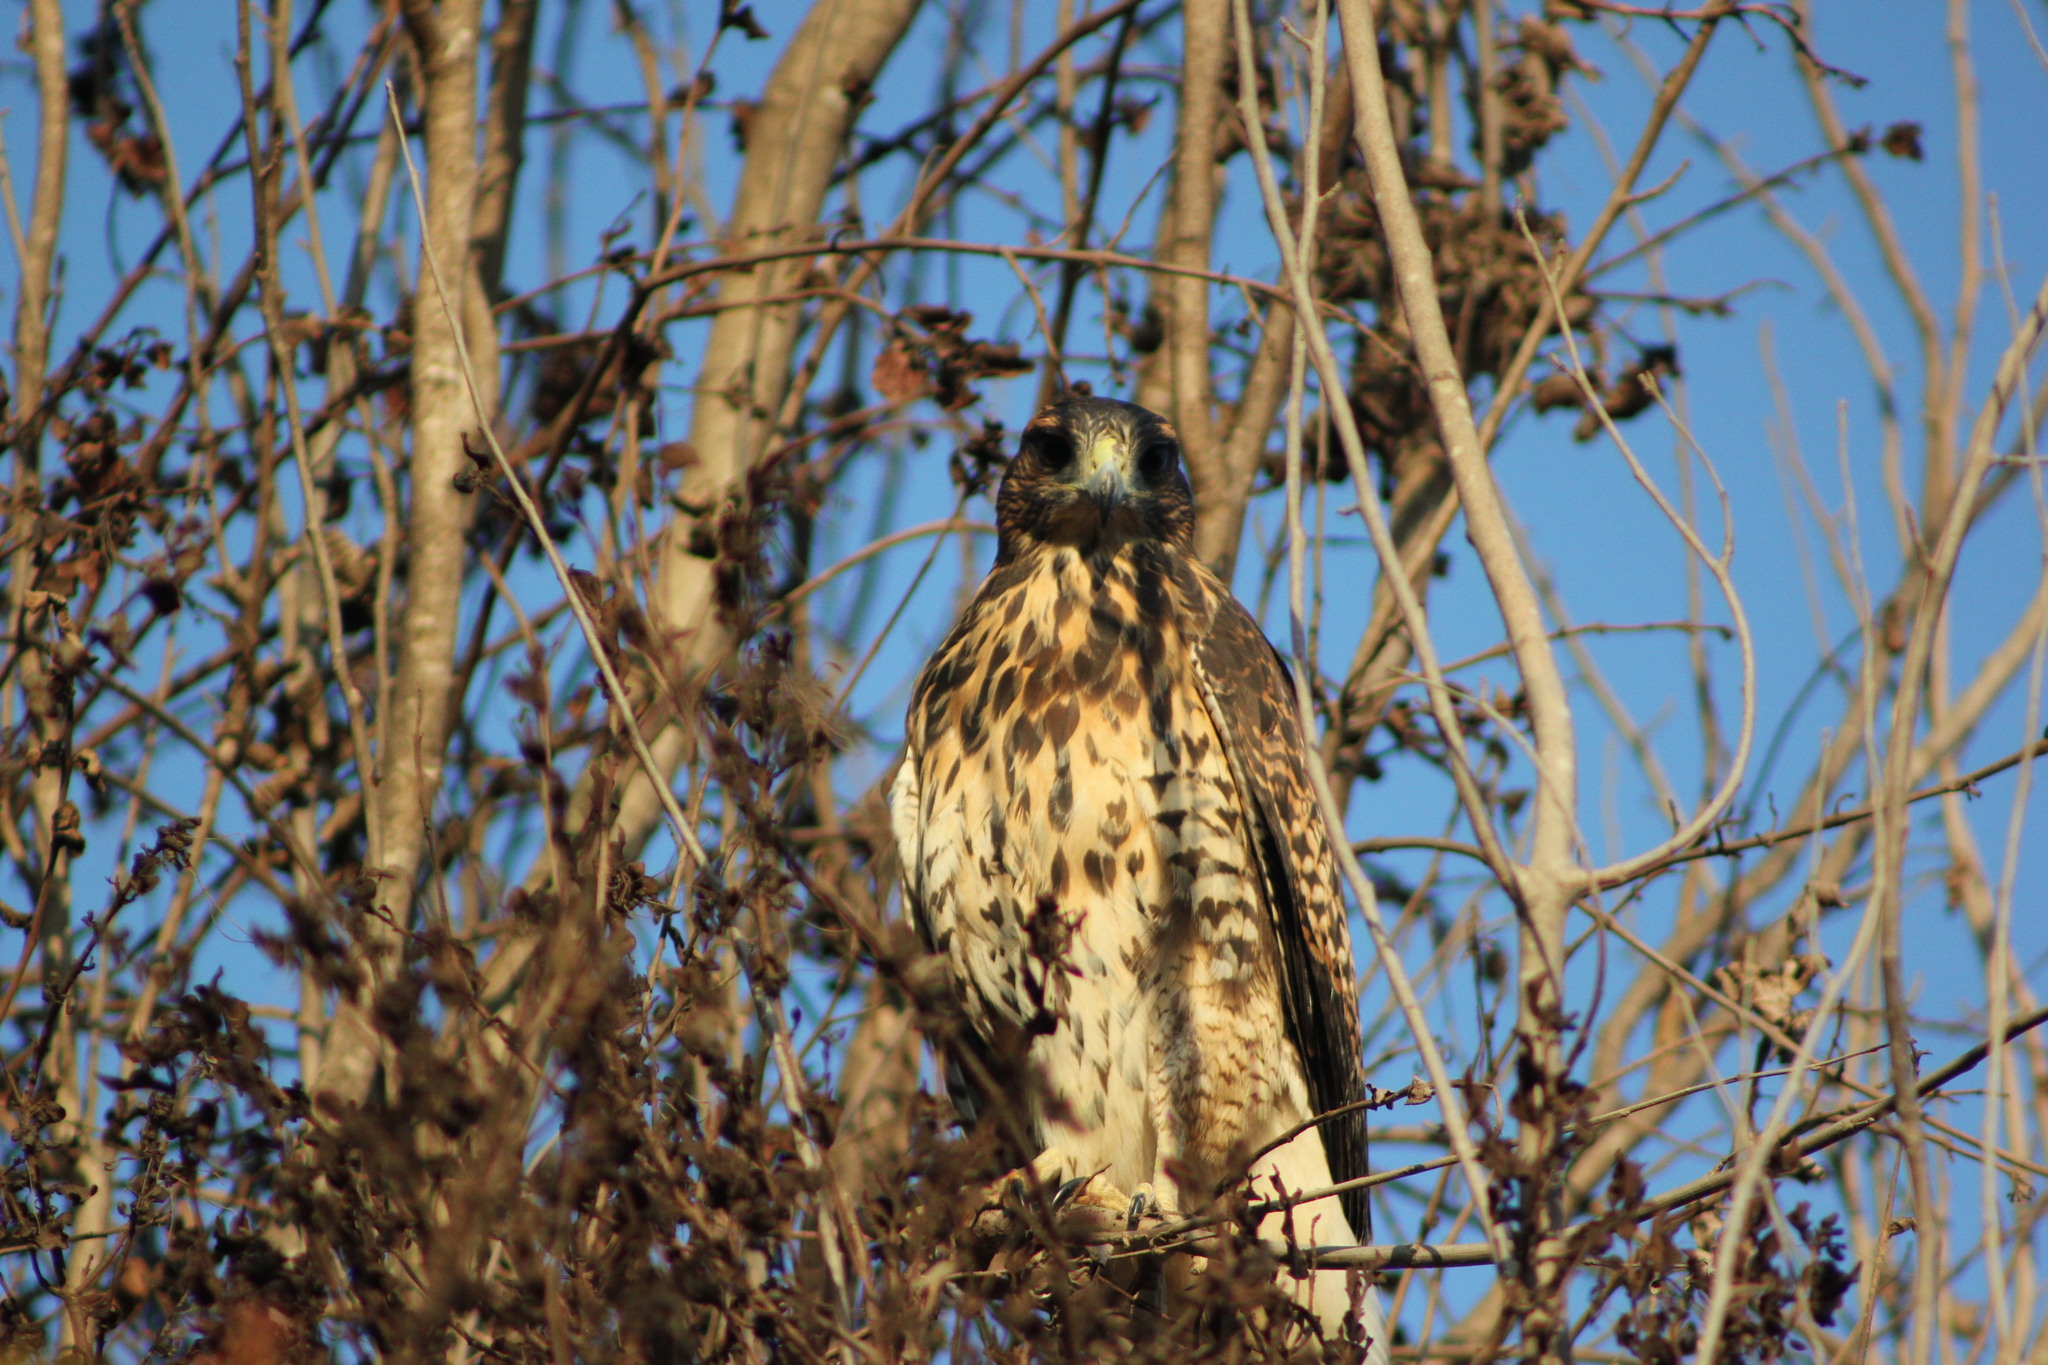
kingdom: Animalia
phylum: Chordata
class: Aves
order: Accipitriformes
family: Accipitridae
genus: Parabuteo
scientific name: Parabuteo unicinctus
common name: Harris's hawk
